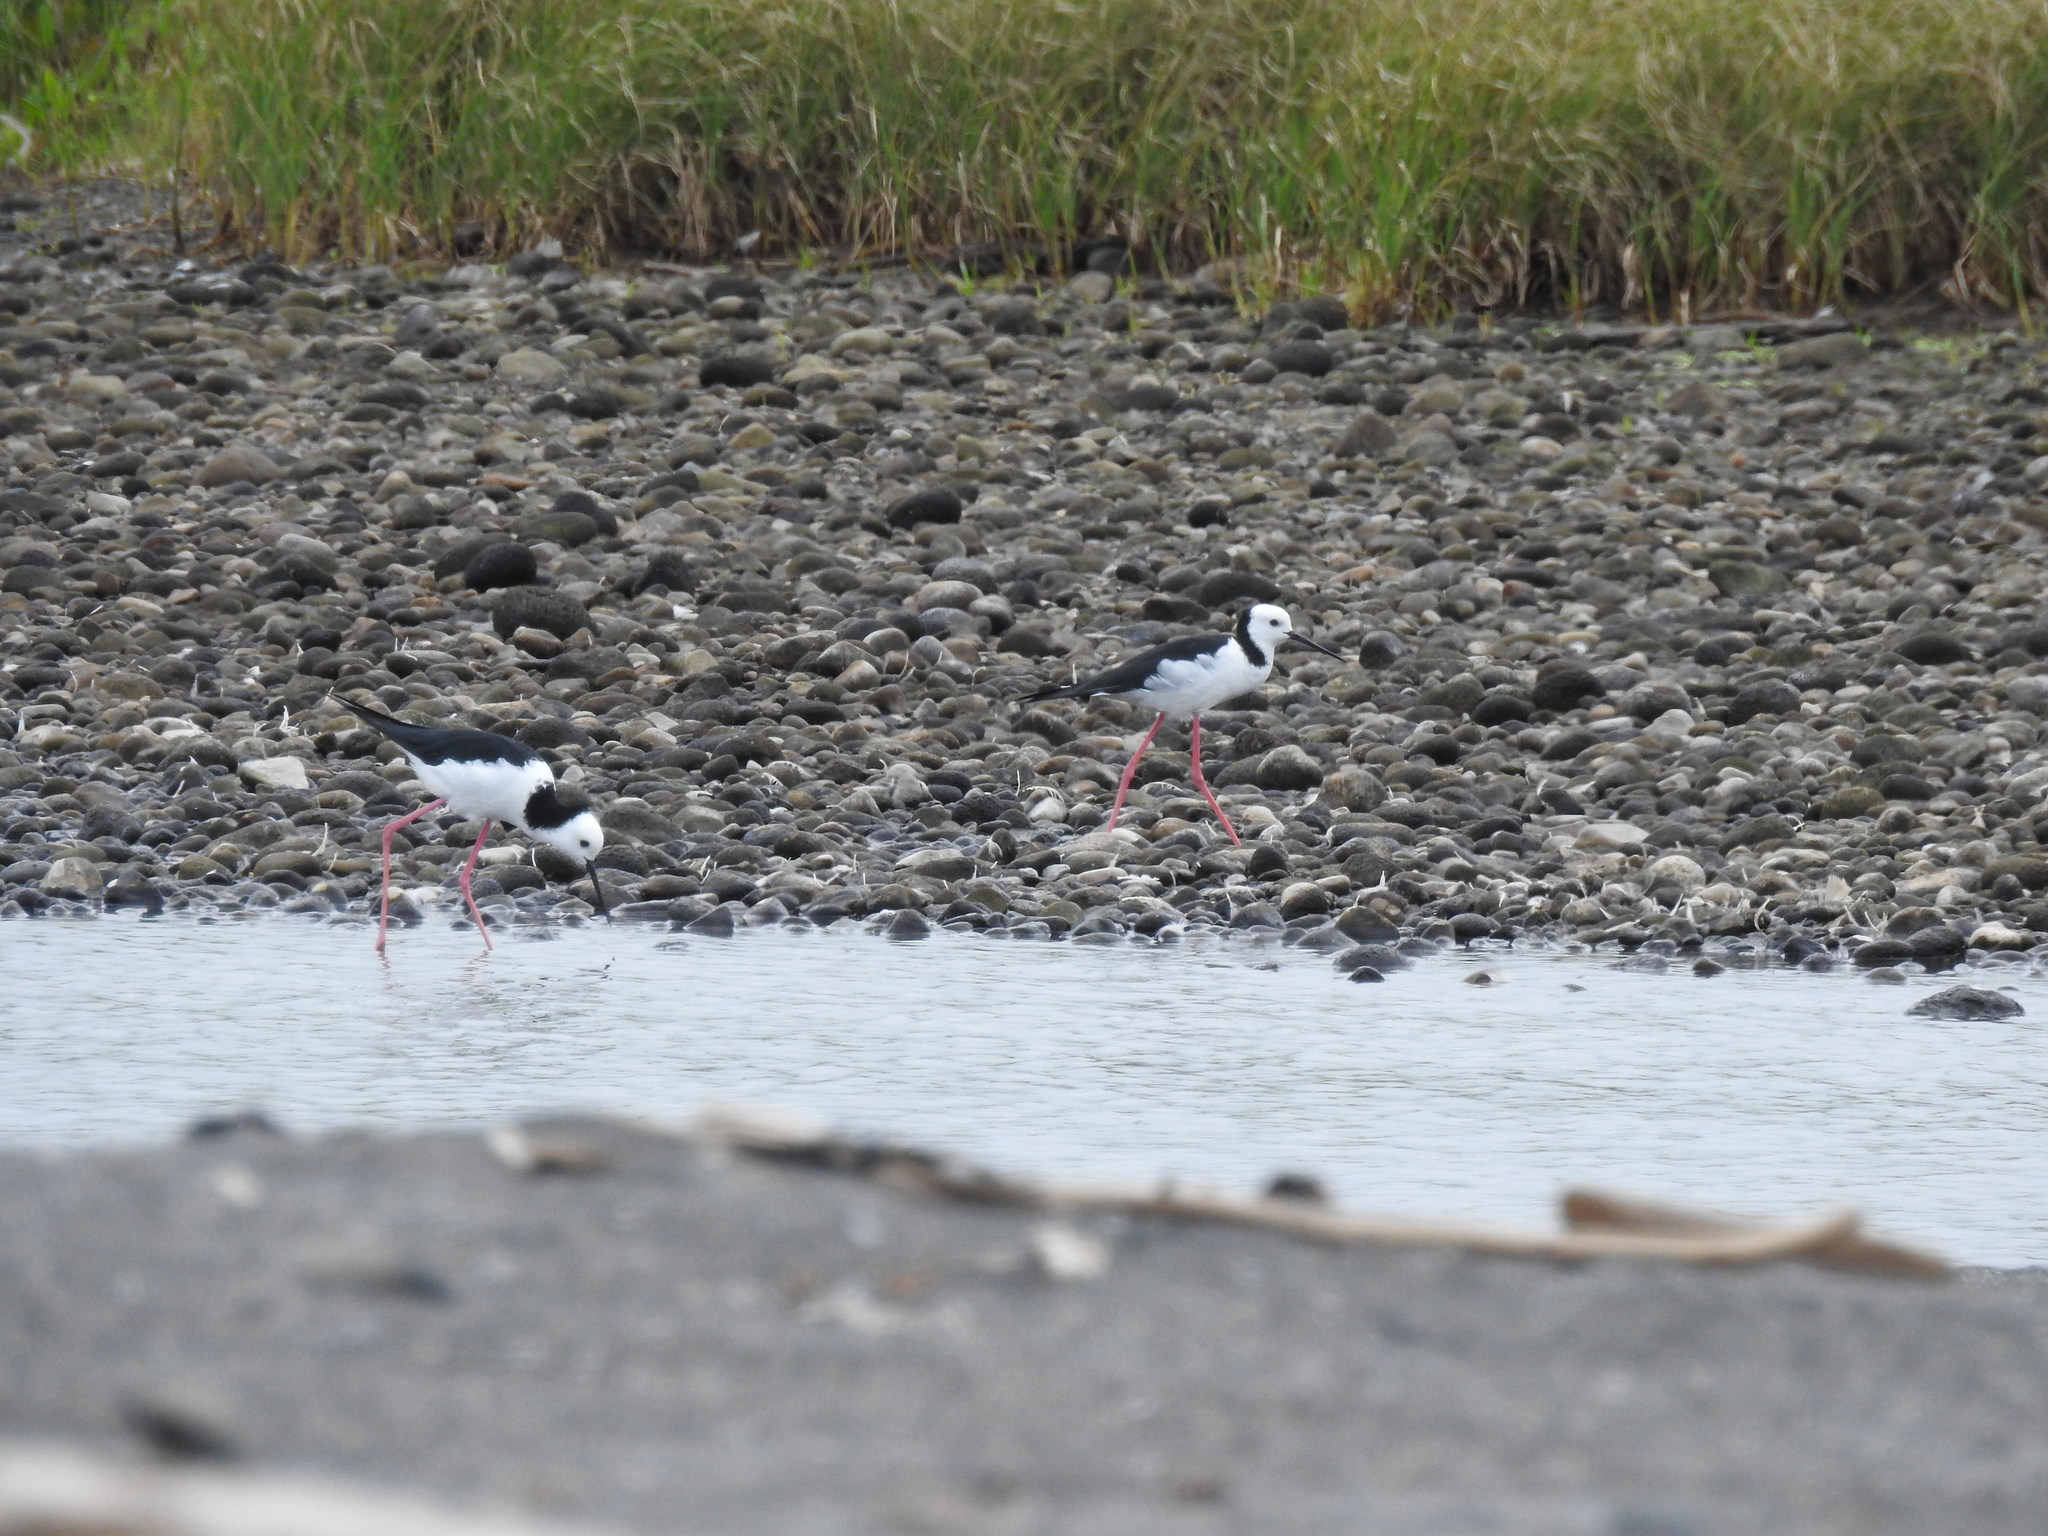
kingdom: Animalia
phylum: Chordata
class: Aves
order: Charadriiformes
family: Recurvirostridae
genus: Himantopus
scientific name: Himantopus leucocephalus
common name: White-headed stilt
